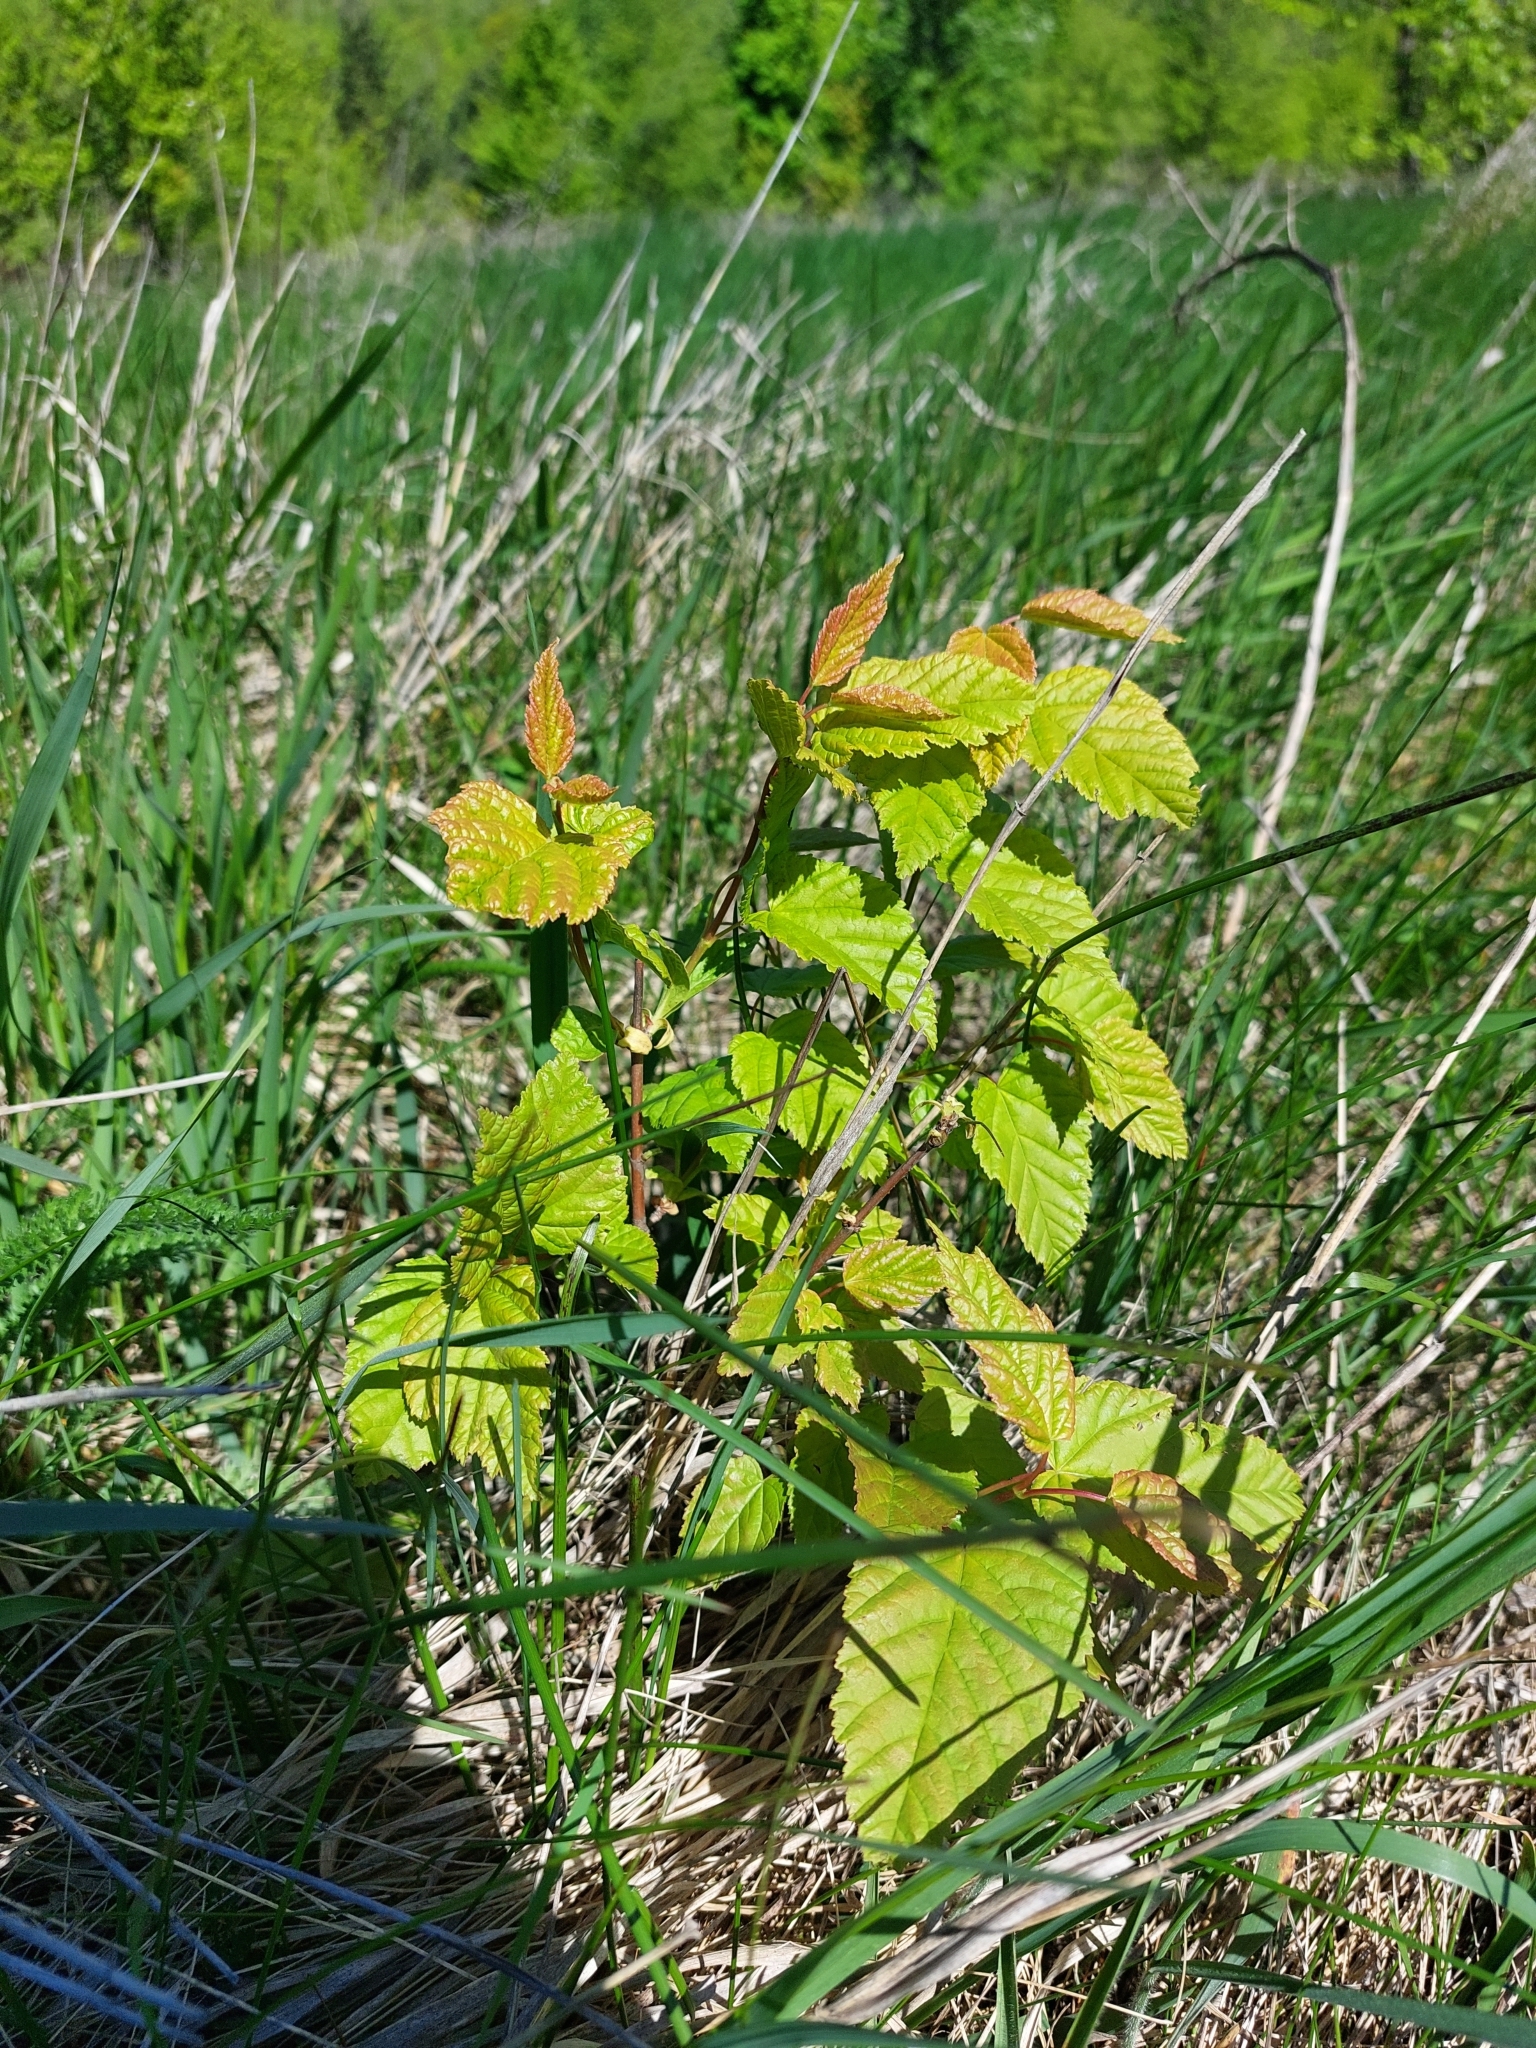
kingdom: Plantae
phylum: Tracheophyta
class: Magnoliopsida
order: Sapindales
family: Sapindaceae
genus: Acer
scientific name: Acer tataricum
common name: Tartar maple
